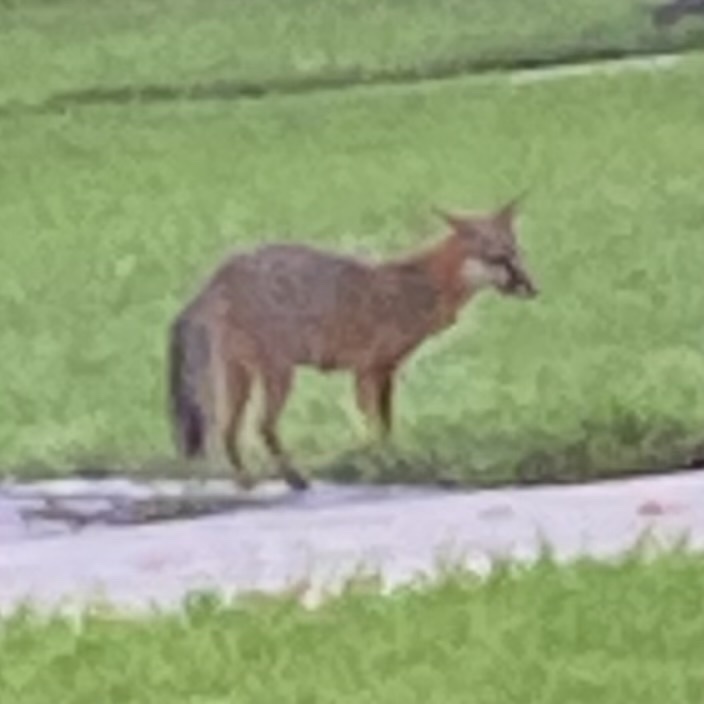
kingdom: Animalia
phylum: Chordata
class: Mammalia
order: Carnivora
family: Canidae
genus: Urocyon
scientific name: Urocyon cinereoargenteus
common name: Gray fox
